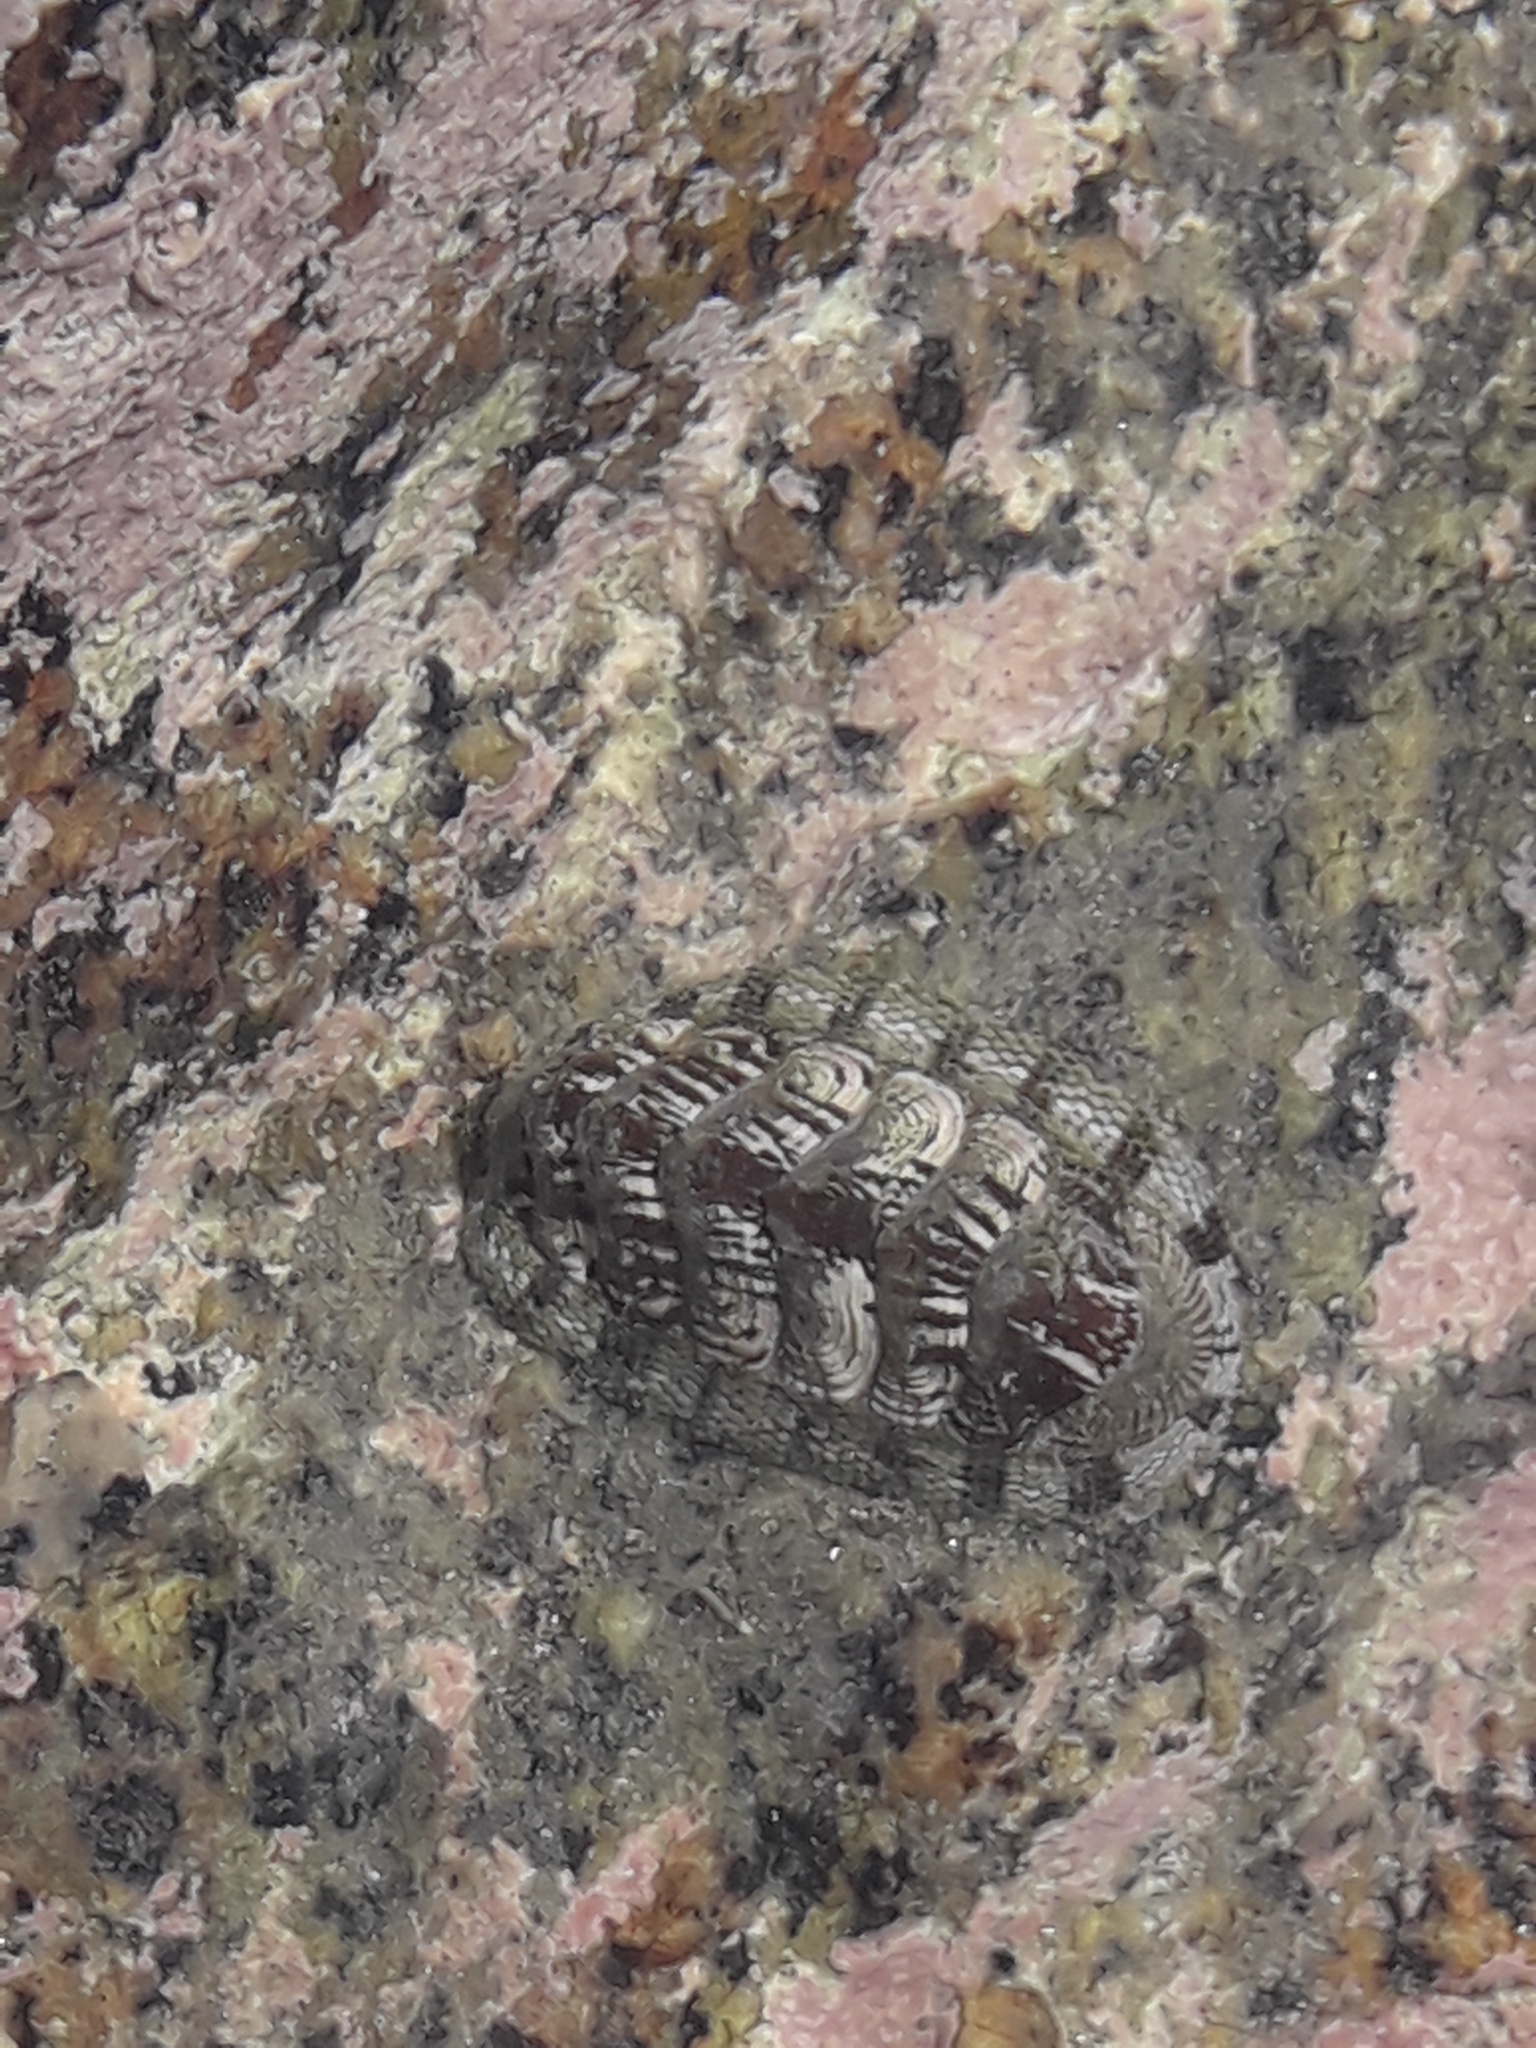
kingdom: Animalia
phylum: Mollusca
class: Polyplacophora
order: Chitonida
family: Chitonidae
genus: Sypharochiton
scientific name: Sypharochiton sinclairi
